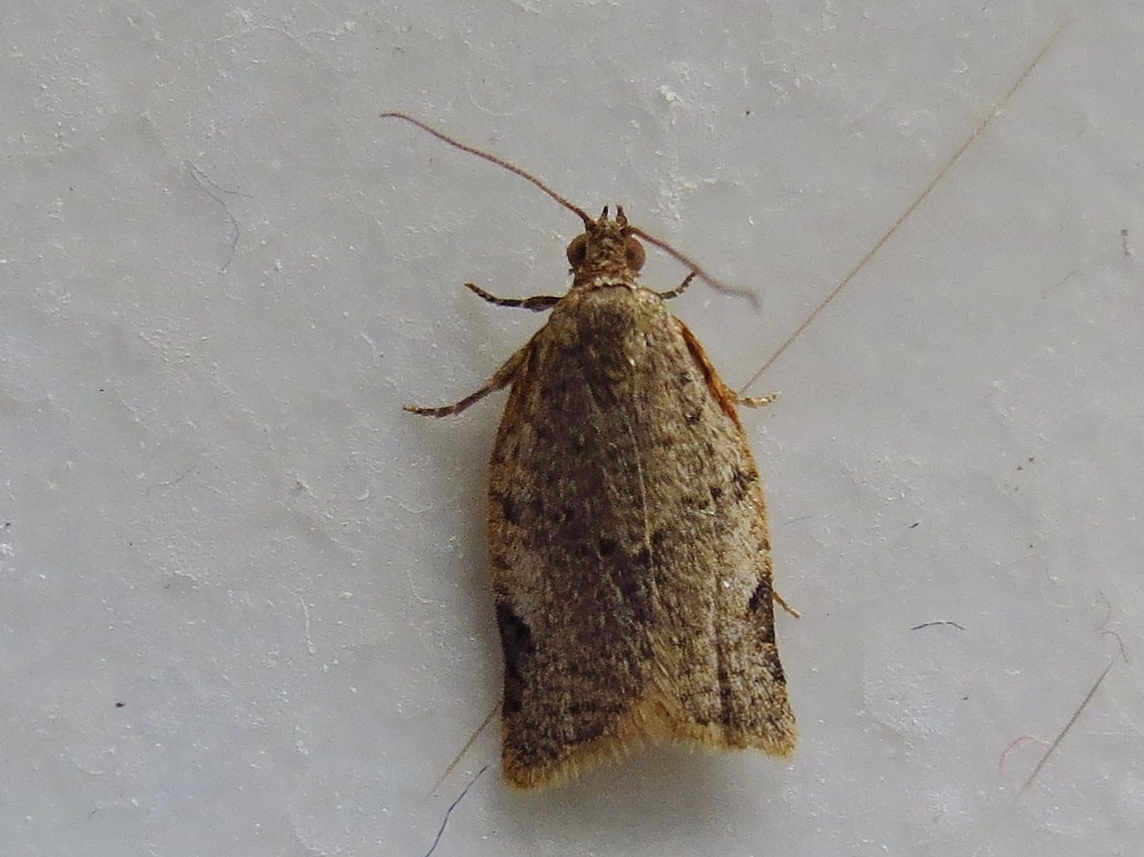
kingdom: Animalia
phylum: Arthropoda
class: Insecta
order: Lepidoptera
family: Tortricidae
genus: Clepsis
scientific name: Clepsis virescana
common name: Greenish apple moth
